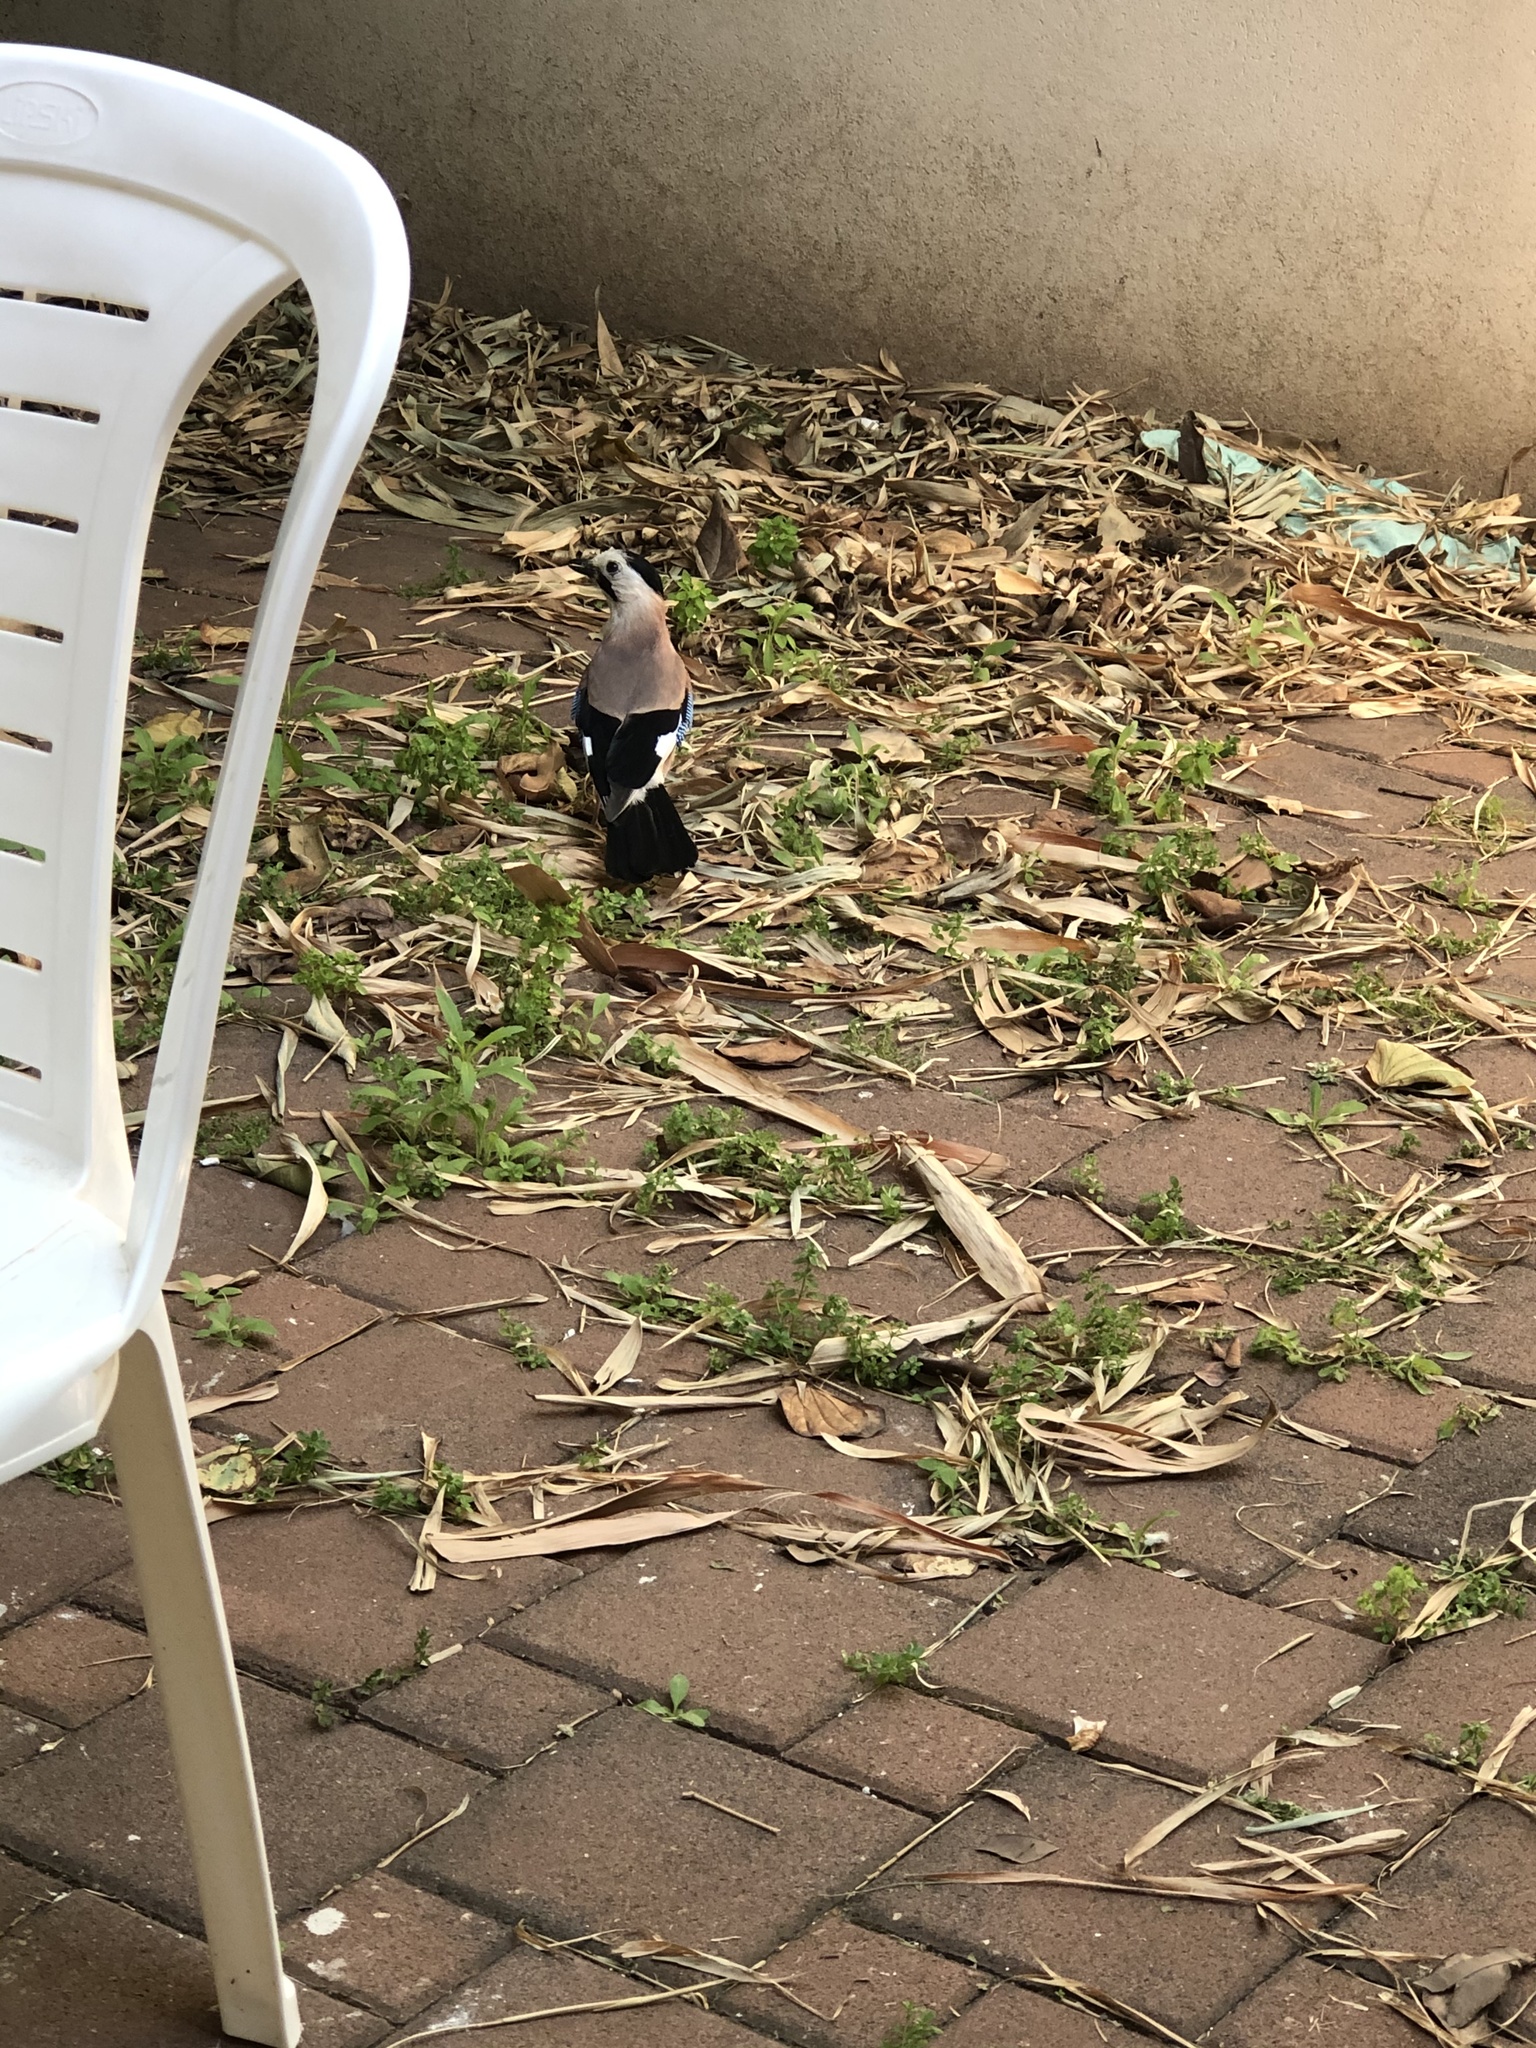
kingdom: Animalia
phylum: Chordata
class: Aves
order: Passeriformes
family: Corvidae
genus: Garrulus
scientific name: Garrulus glandarius
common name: Eurasian jay
